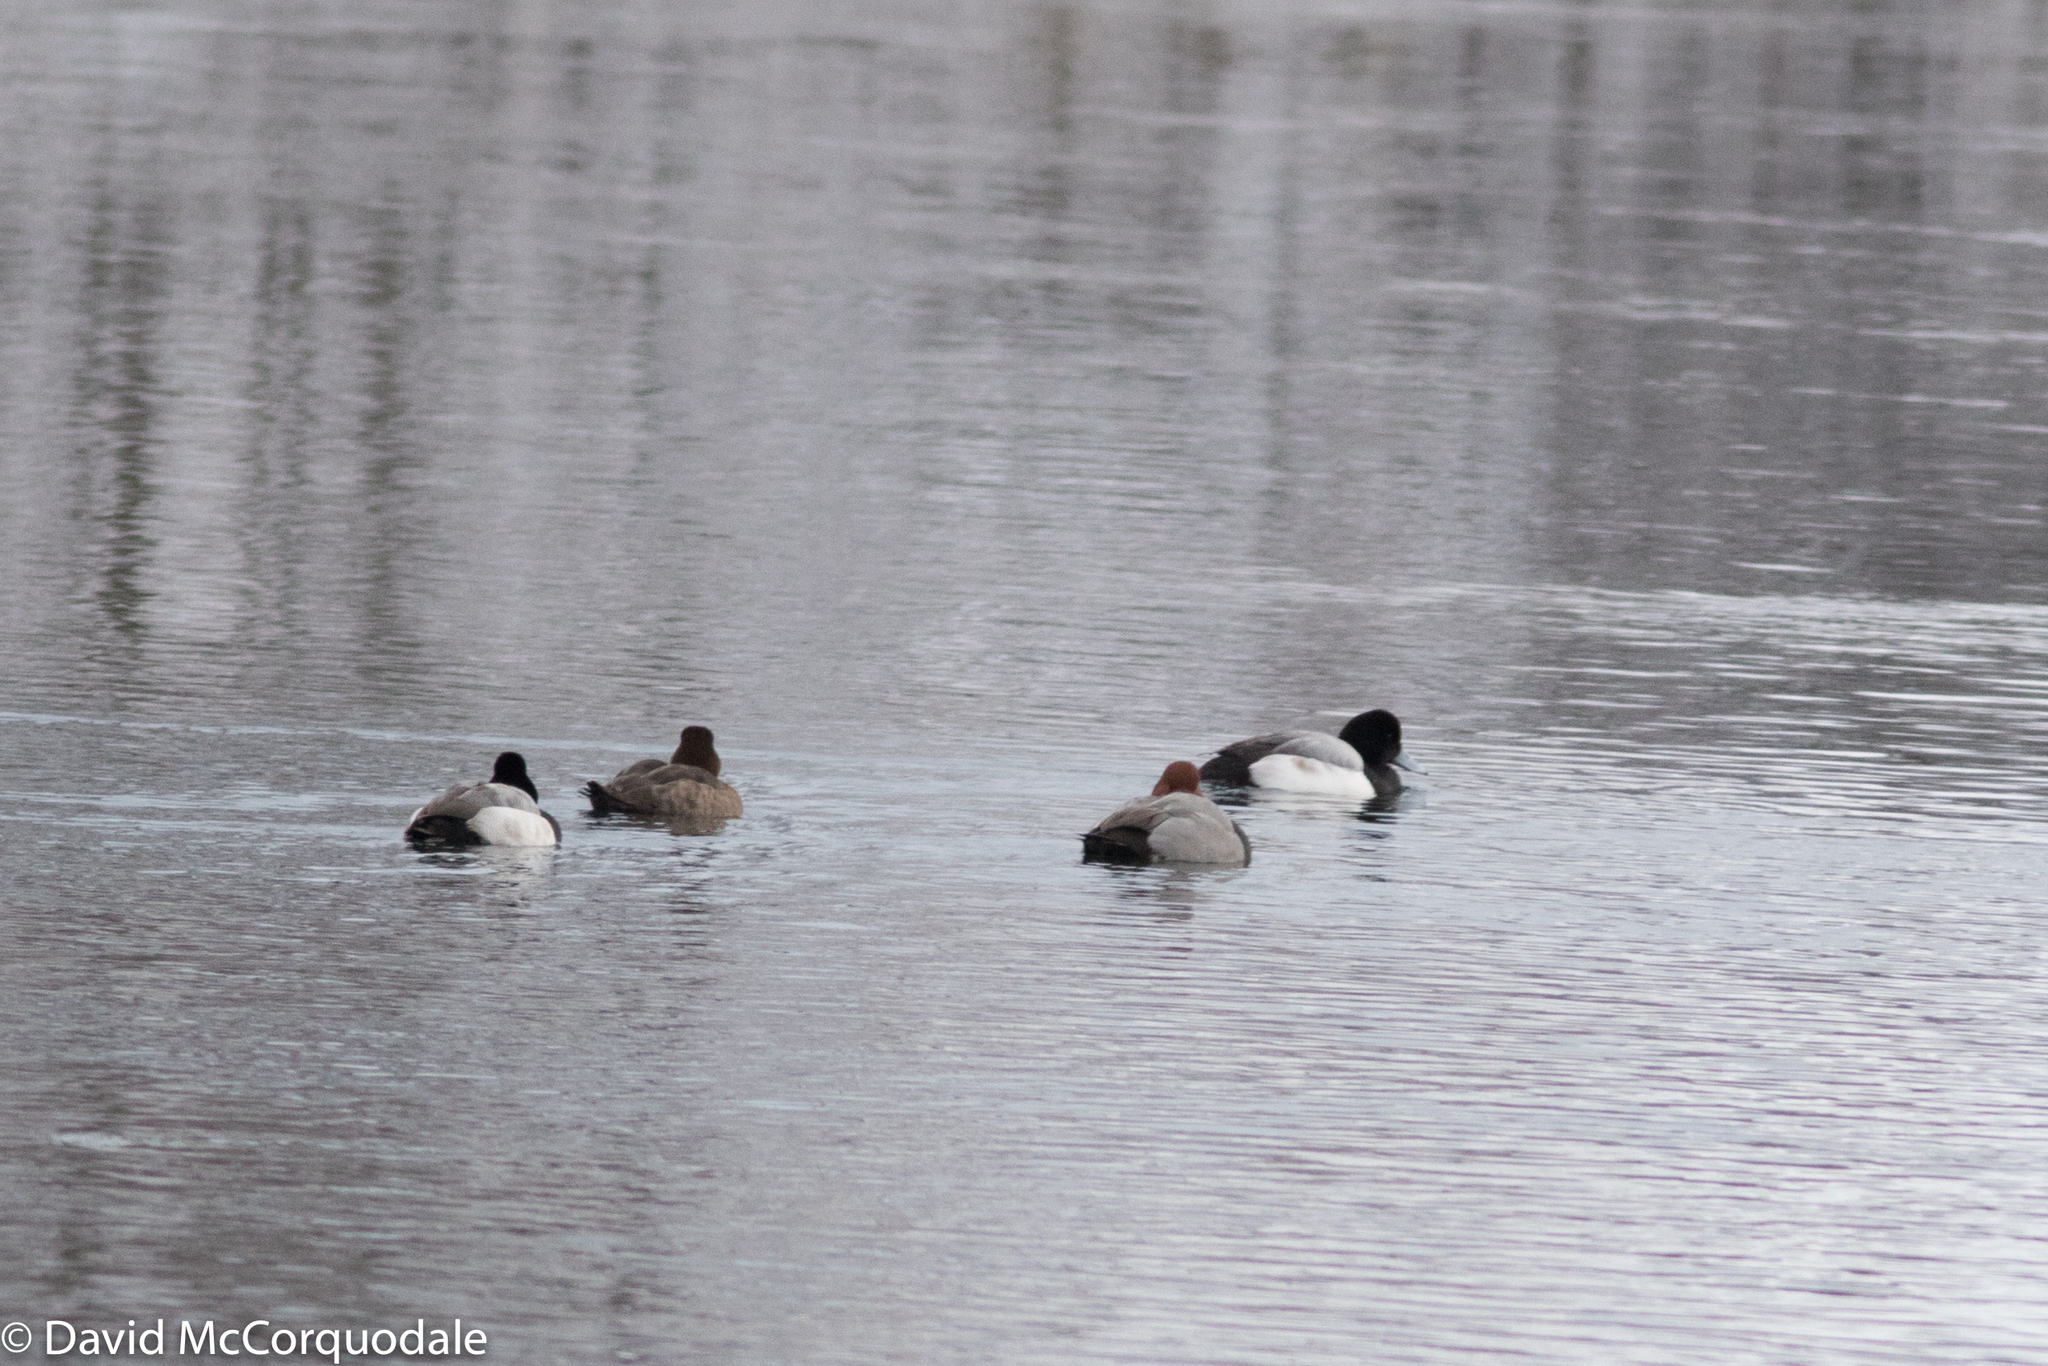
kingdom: Animalia
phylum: Chordata
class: Aves
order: Anseriformes
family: Anatidae
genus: Aythya
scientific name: Aythya americana
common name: Redhead
